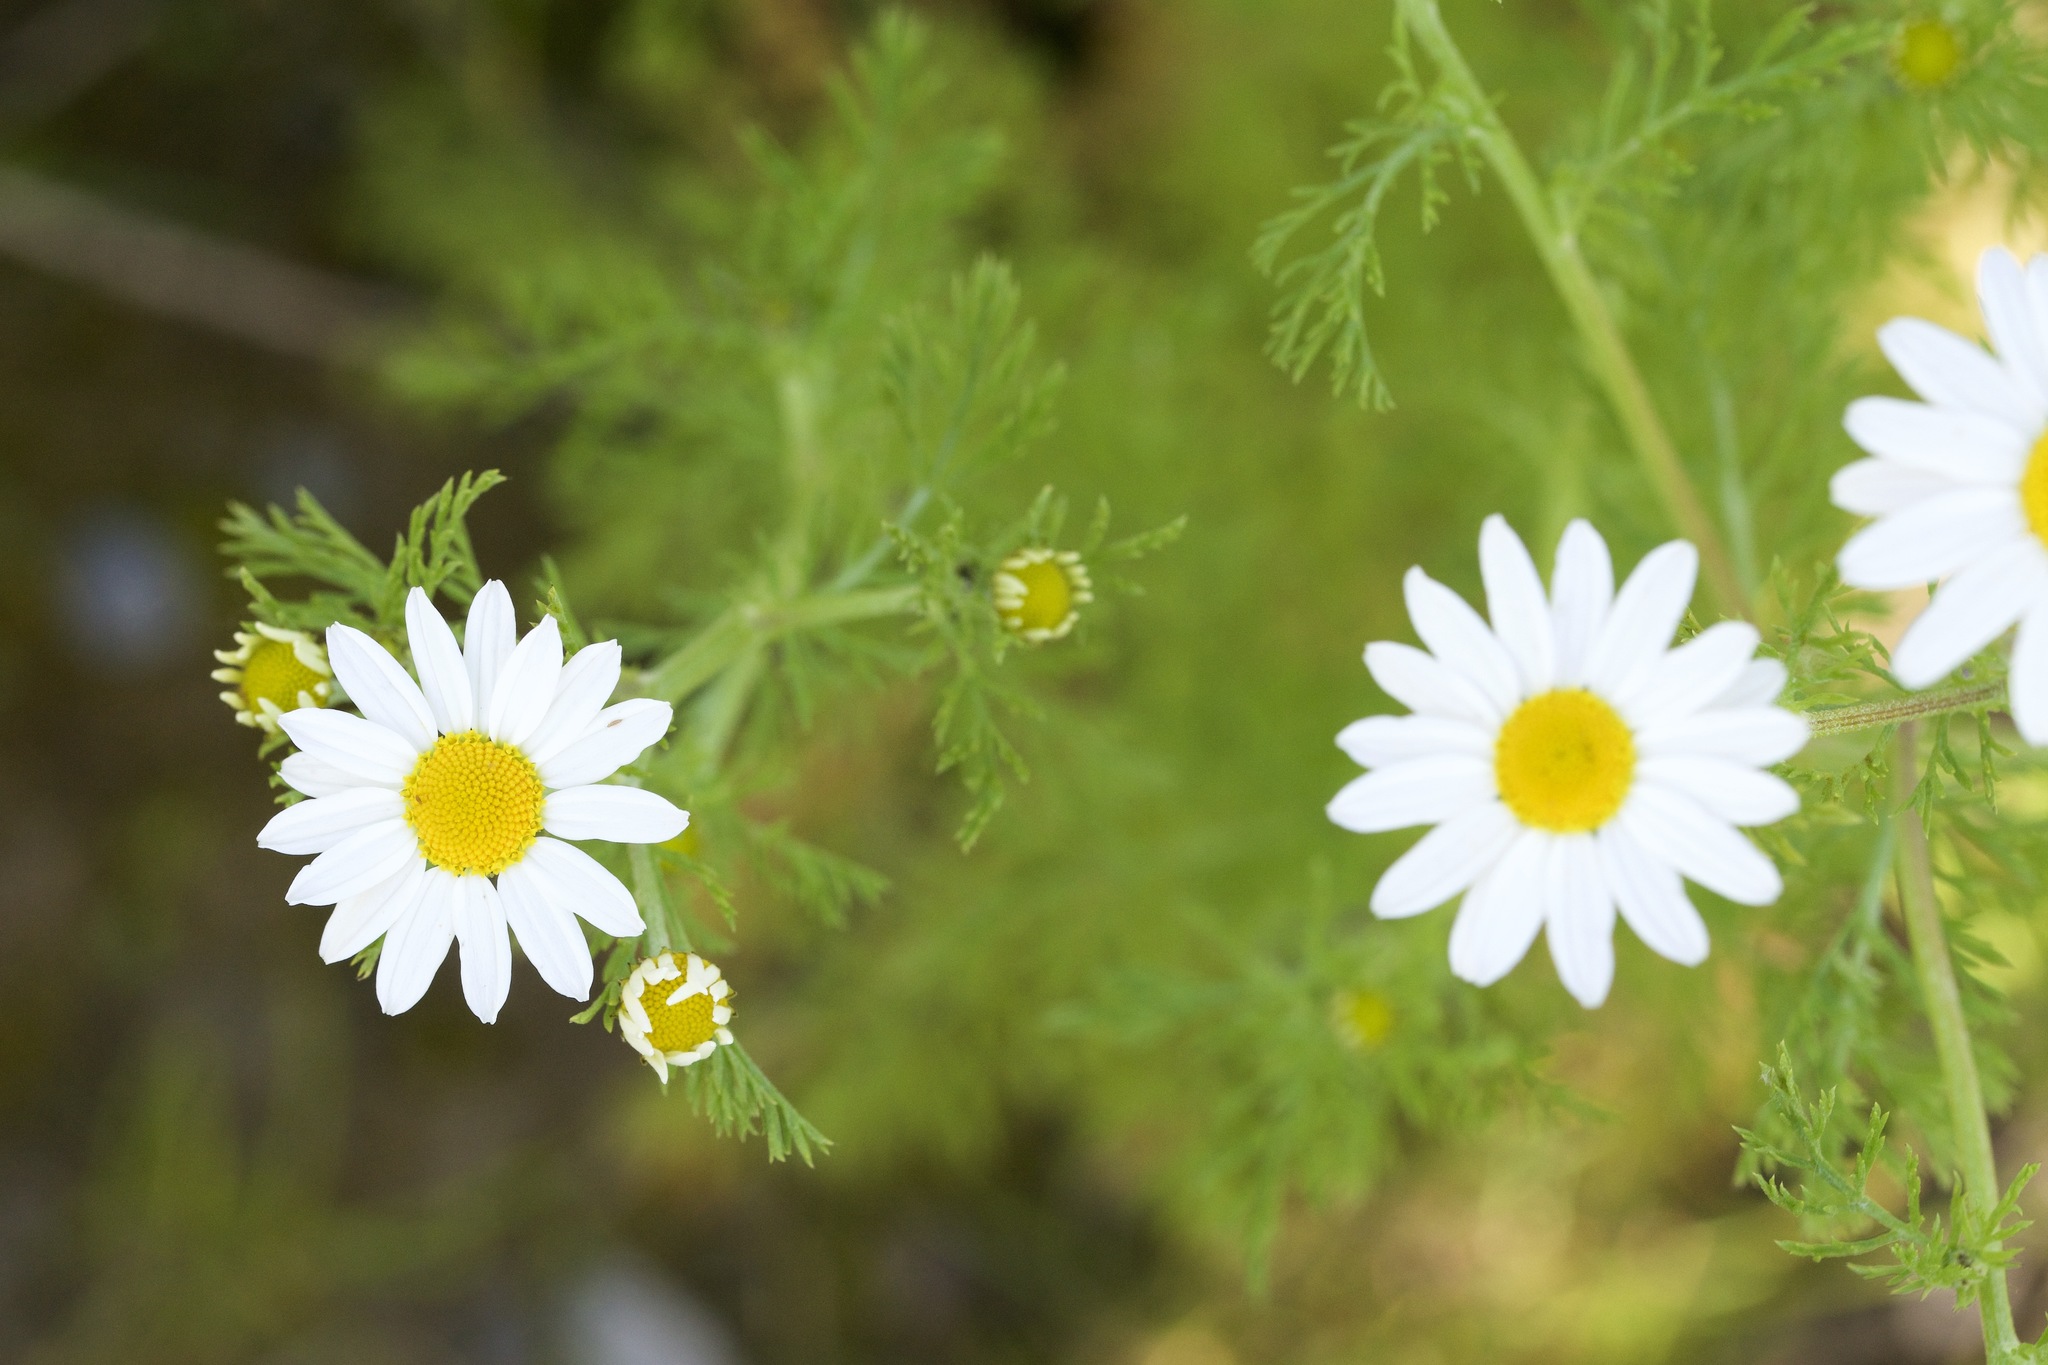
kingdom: Plantae
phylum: Tracheophyta
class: Magnoliopsida
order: Asterales
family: Asteraceae
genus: Anthemis
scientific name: Anthemis cotula
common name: Stinking chamomile
